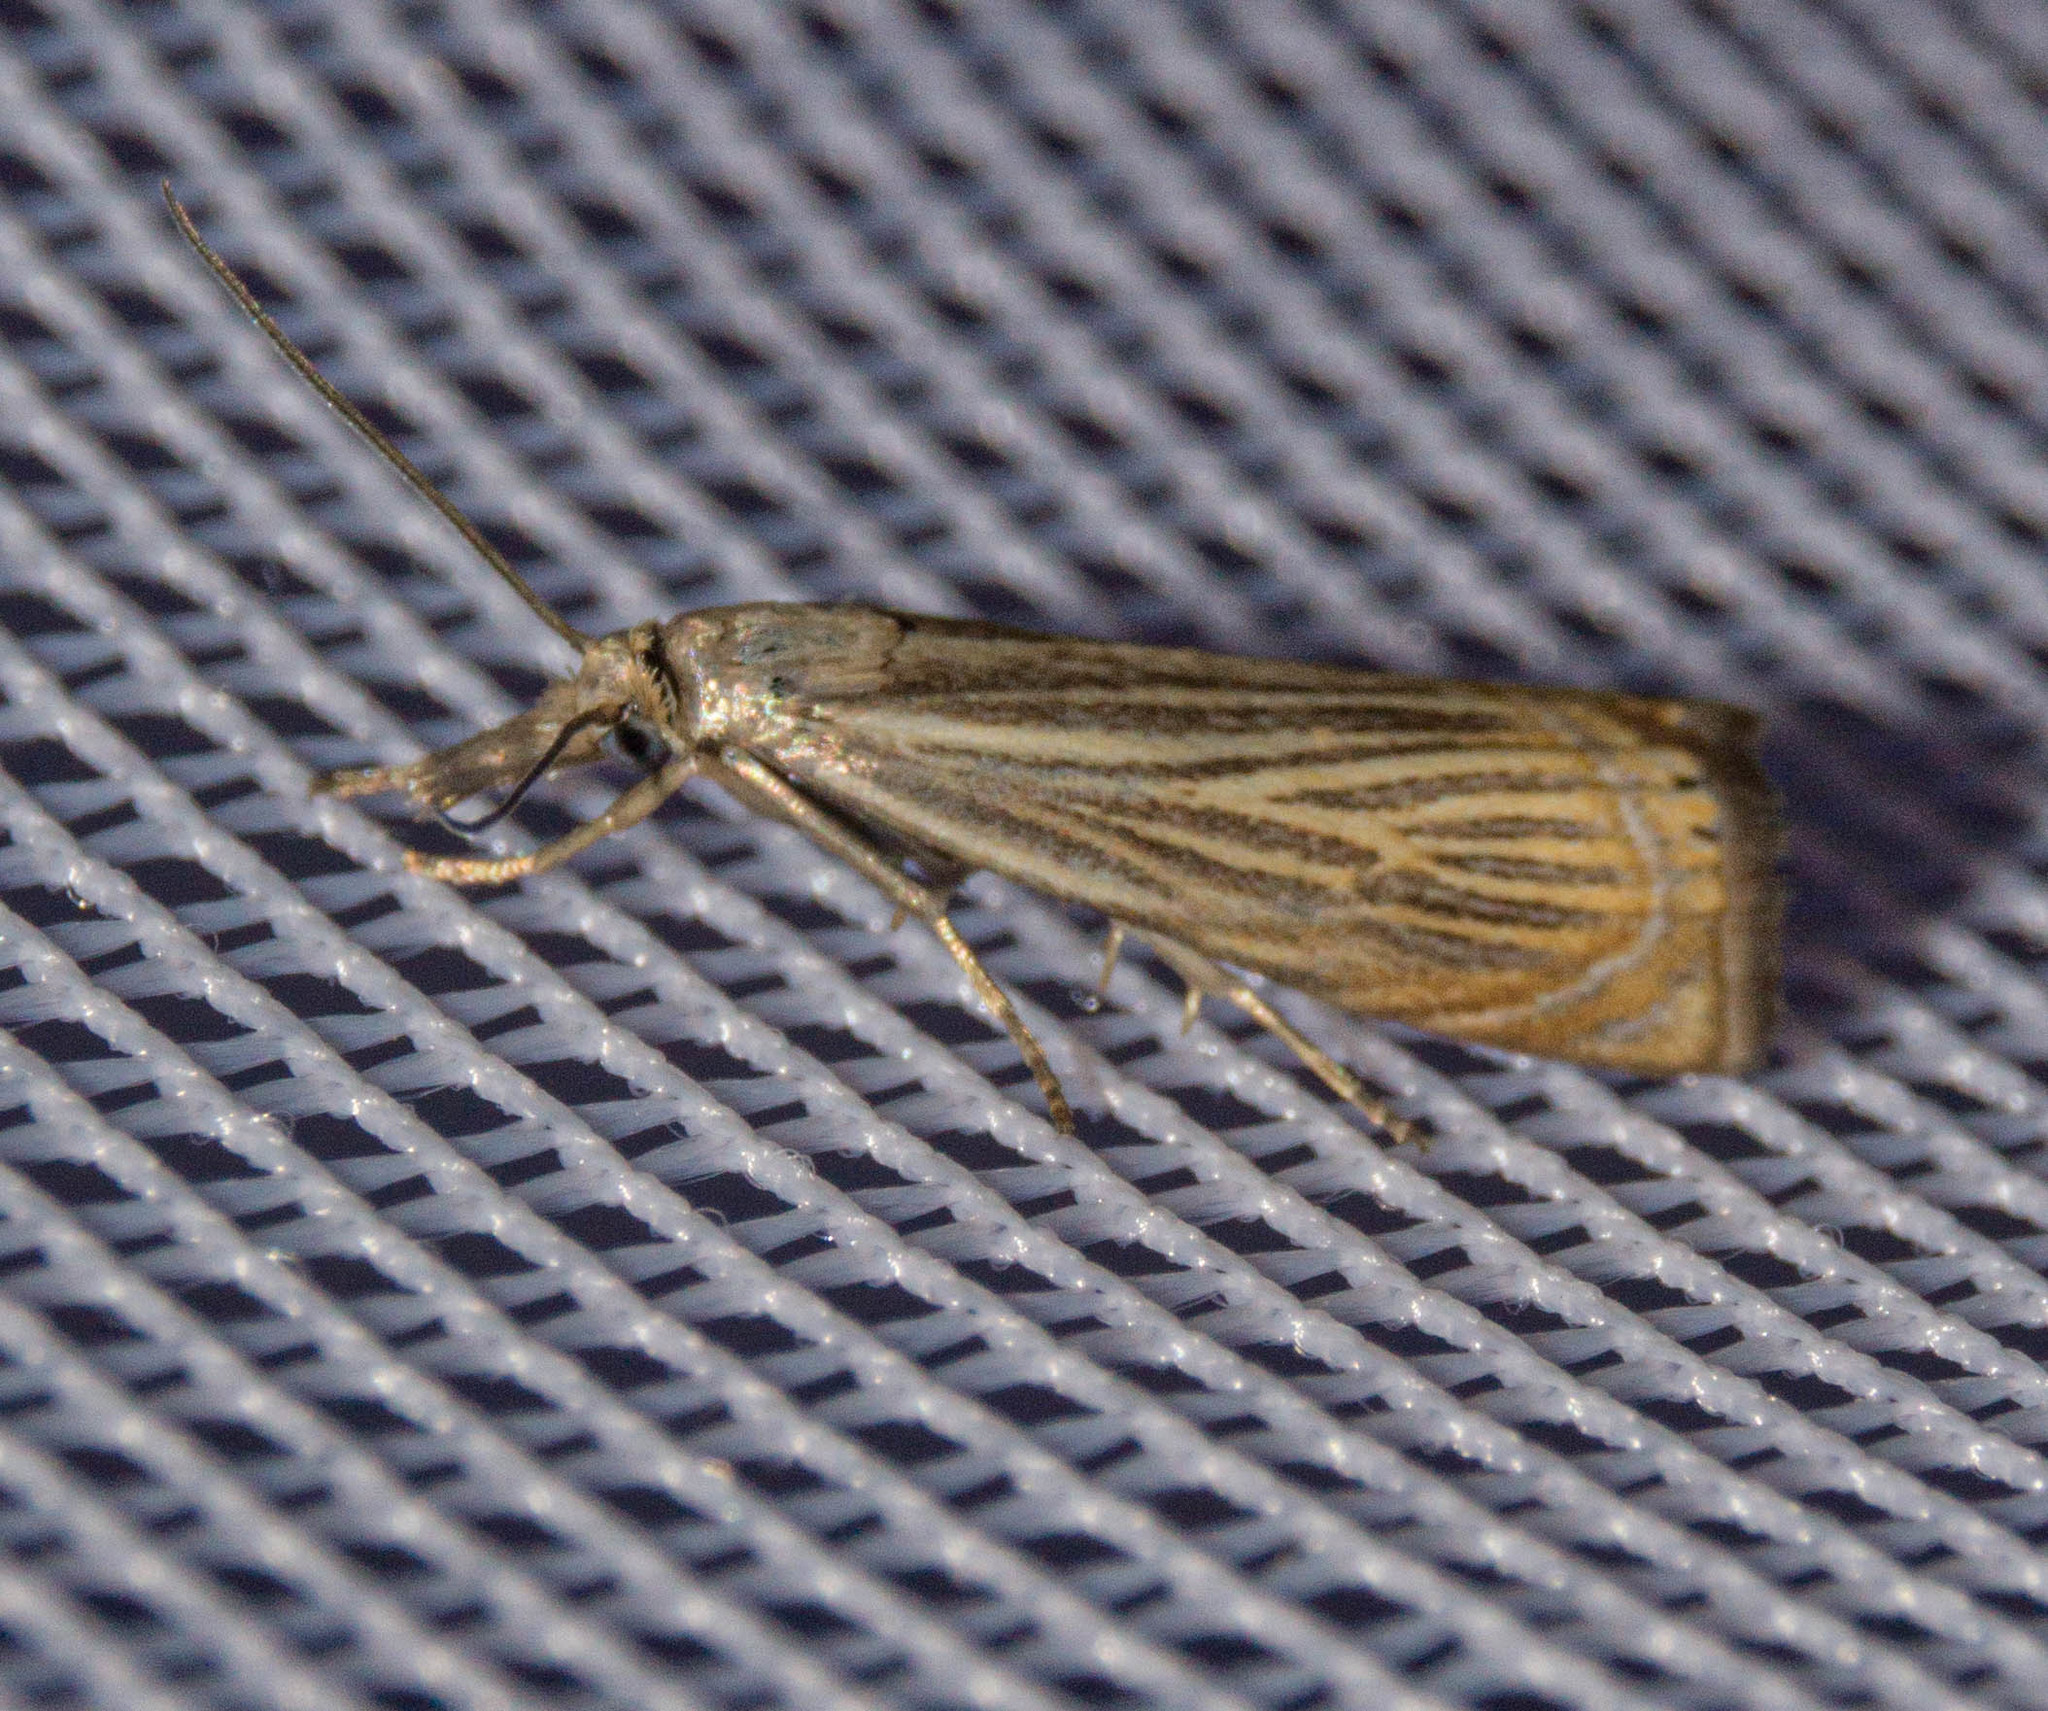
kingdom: Animalia
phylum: Arthropoda
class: Insecta
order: Lepidoptera
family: Crambidae
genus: Chrysoteuchia
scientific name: Chrysoteuchia culmella
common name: Garden grass-veneer
